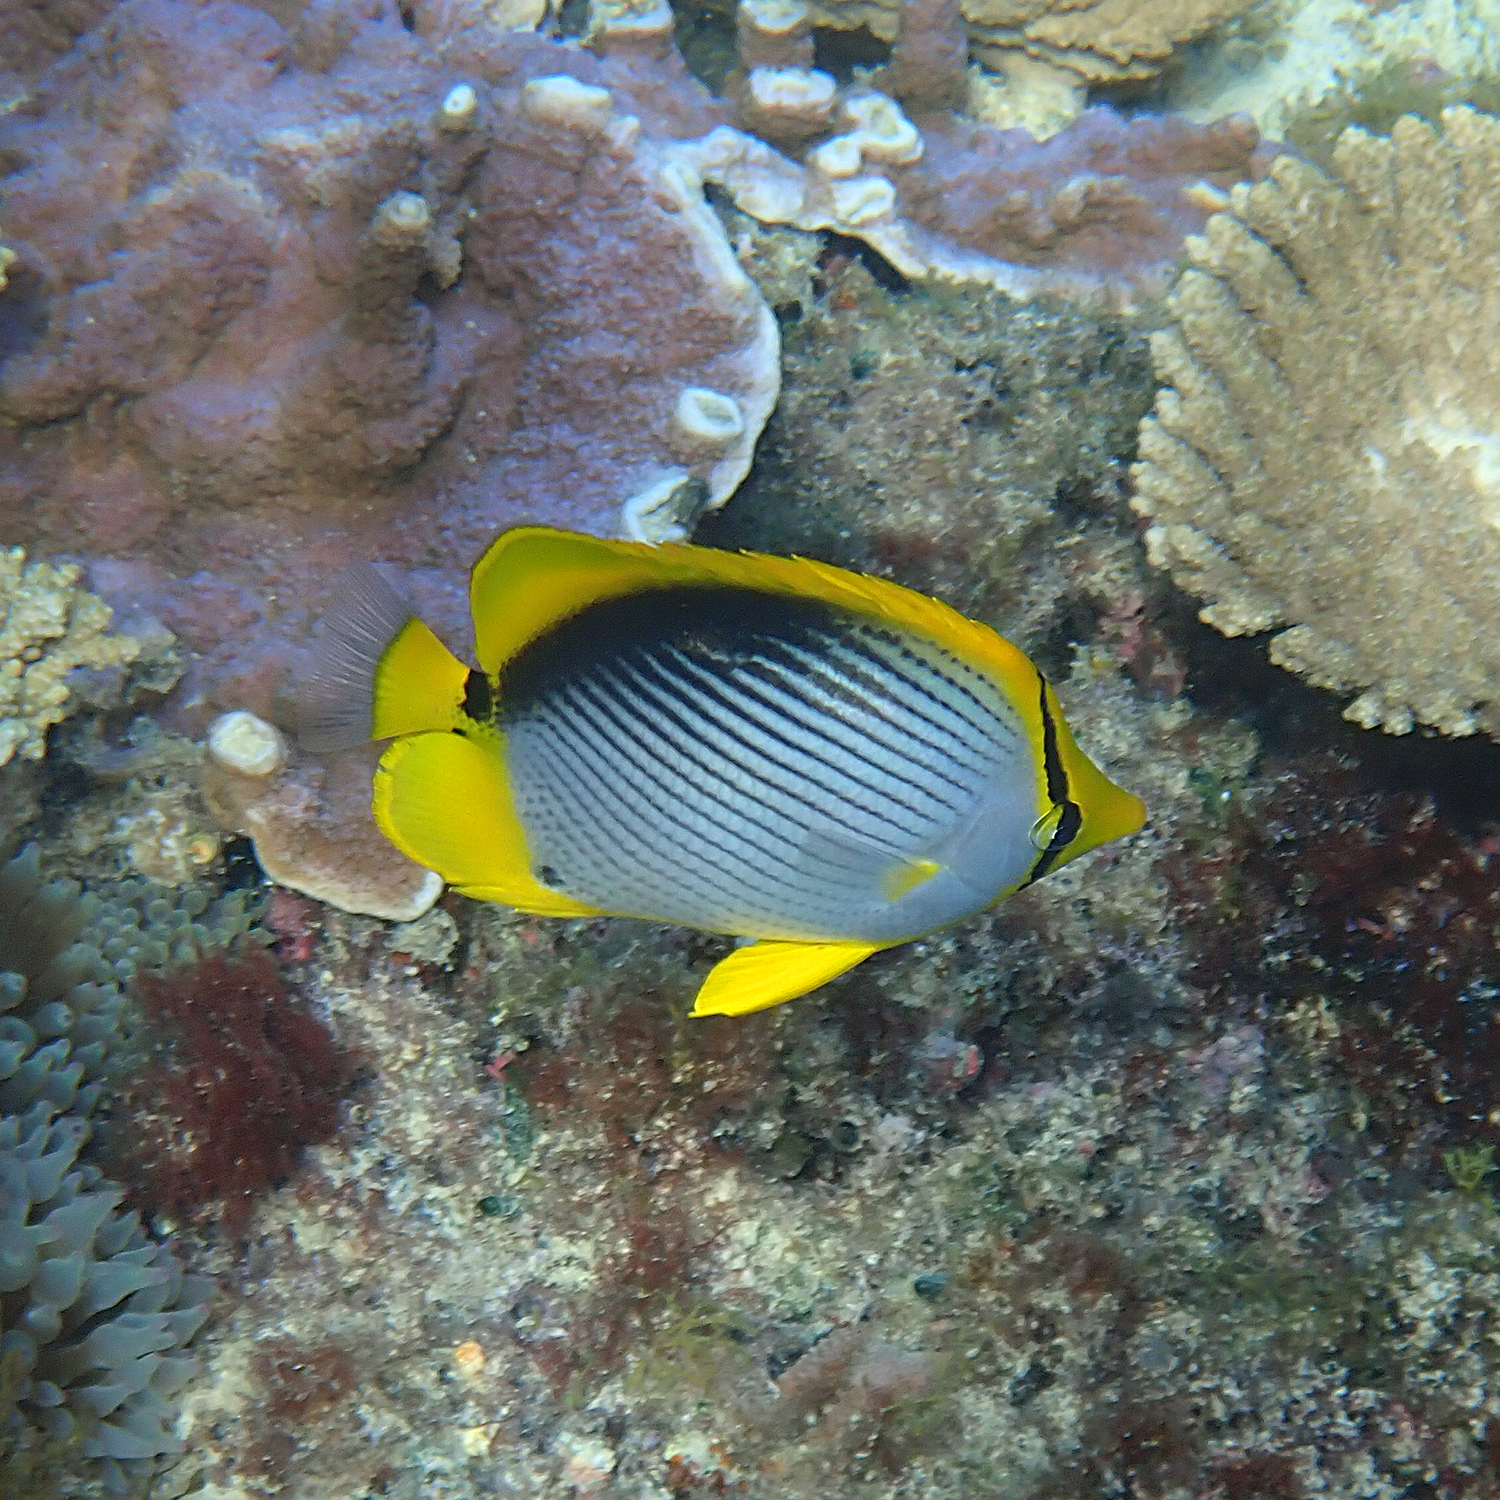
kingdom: Animalia
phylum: Chordata
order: Perciformes
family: Chaetodontidae
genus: Chaetodon
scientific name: Chaetodon melannotus
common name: Blackback butterflyfish
